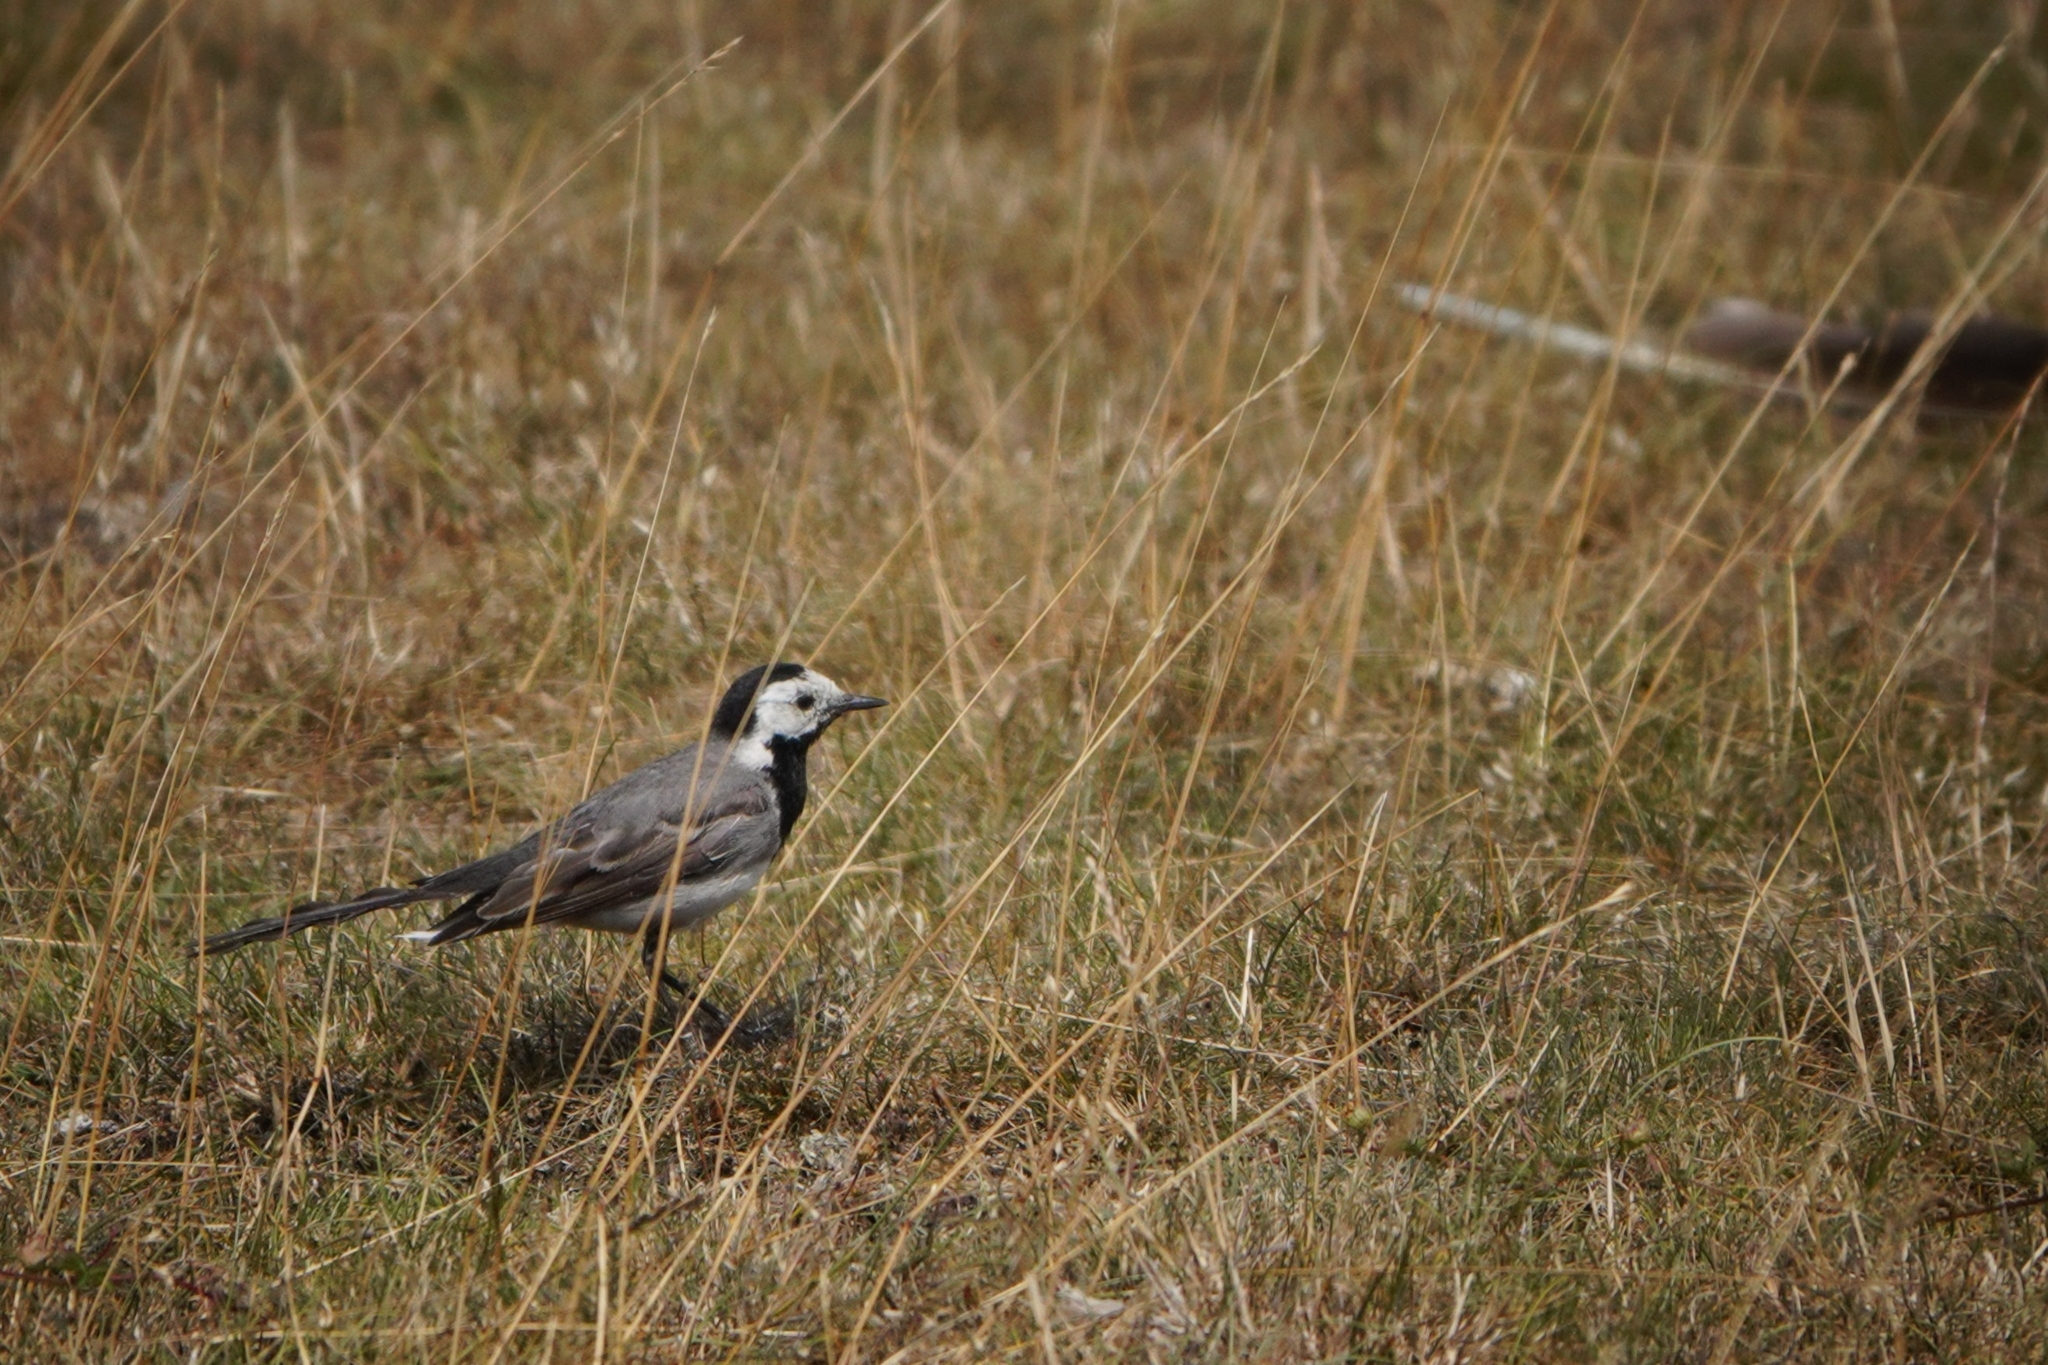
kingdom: Animalia
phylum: Chordata
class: Aves
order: Passeriformes
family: Motacillidae
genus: Motacilla
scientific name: Motacilla alba
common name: White wagtail
